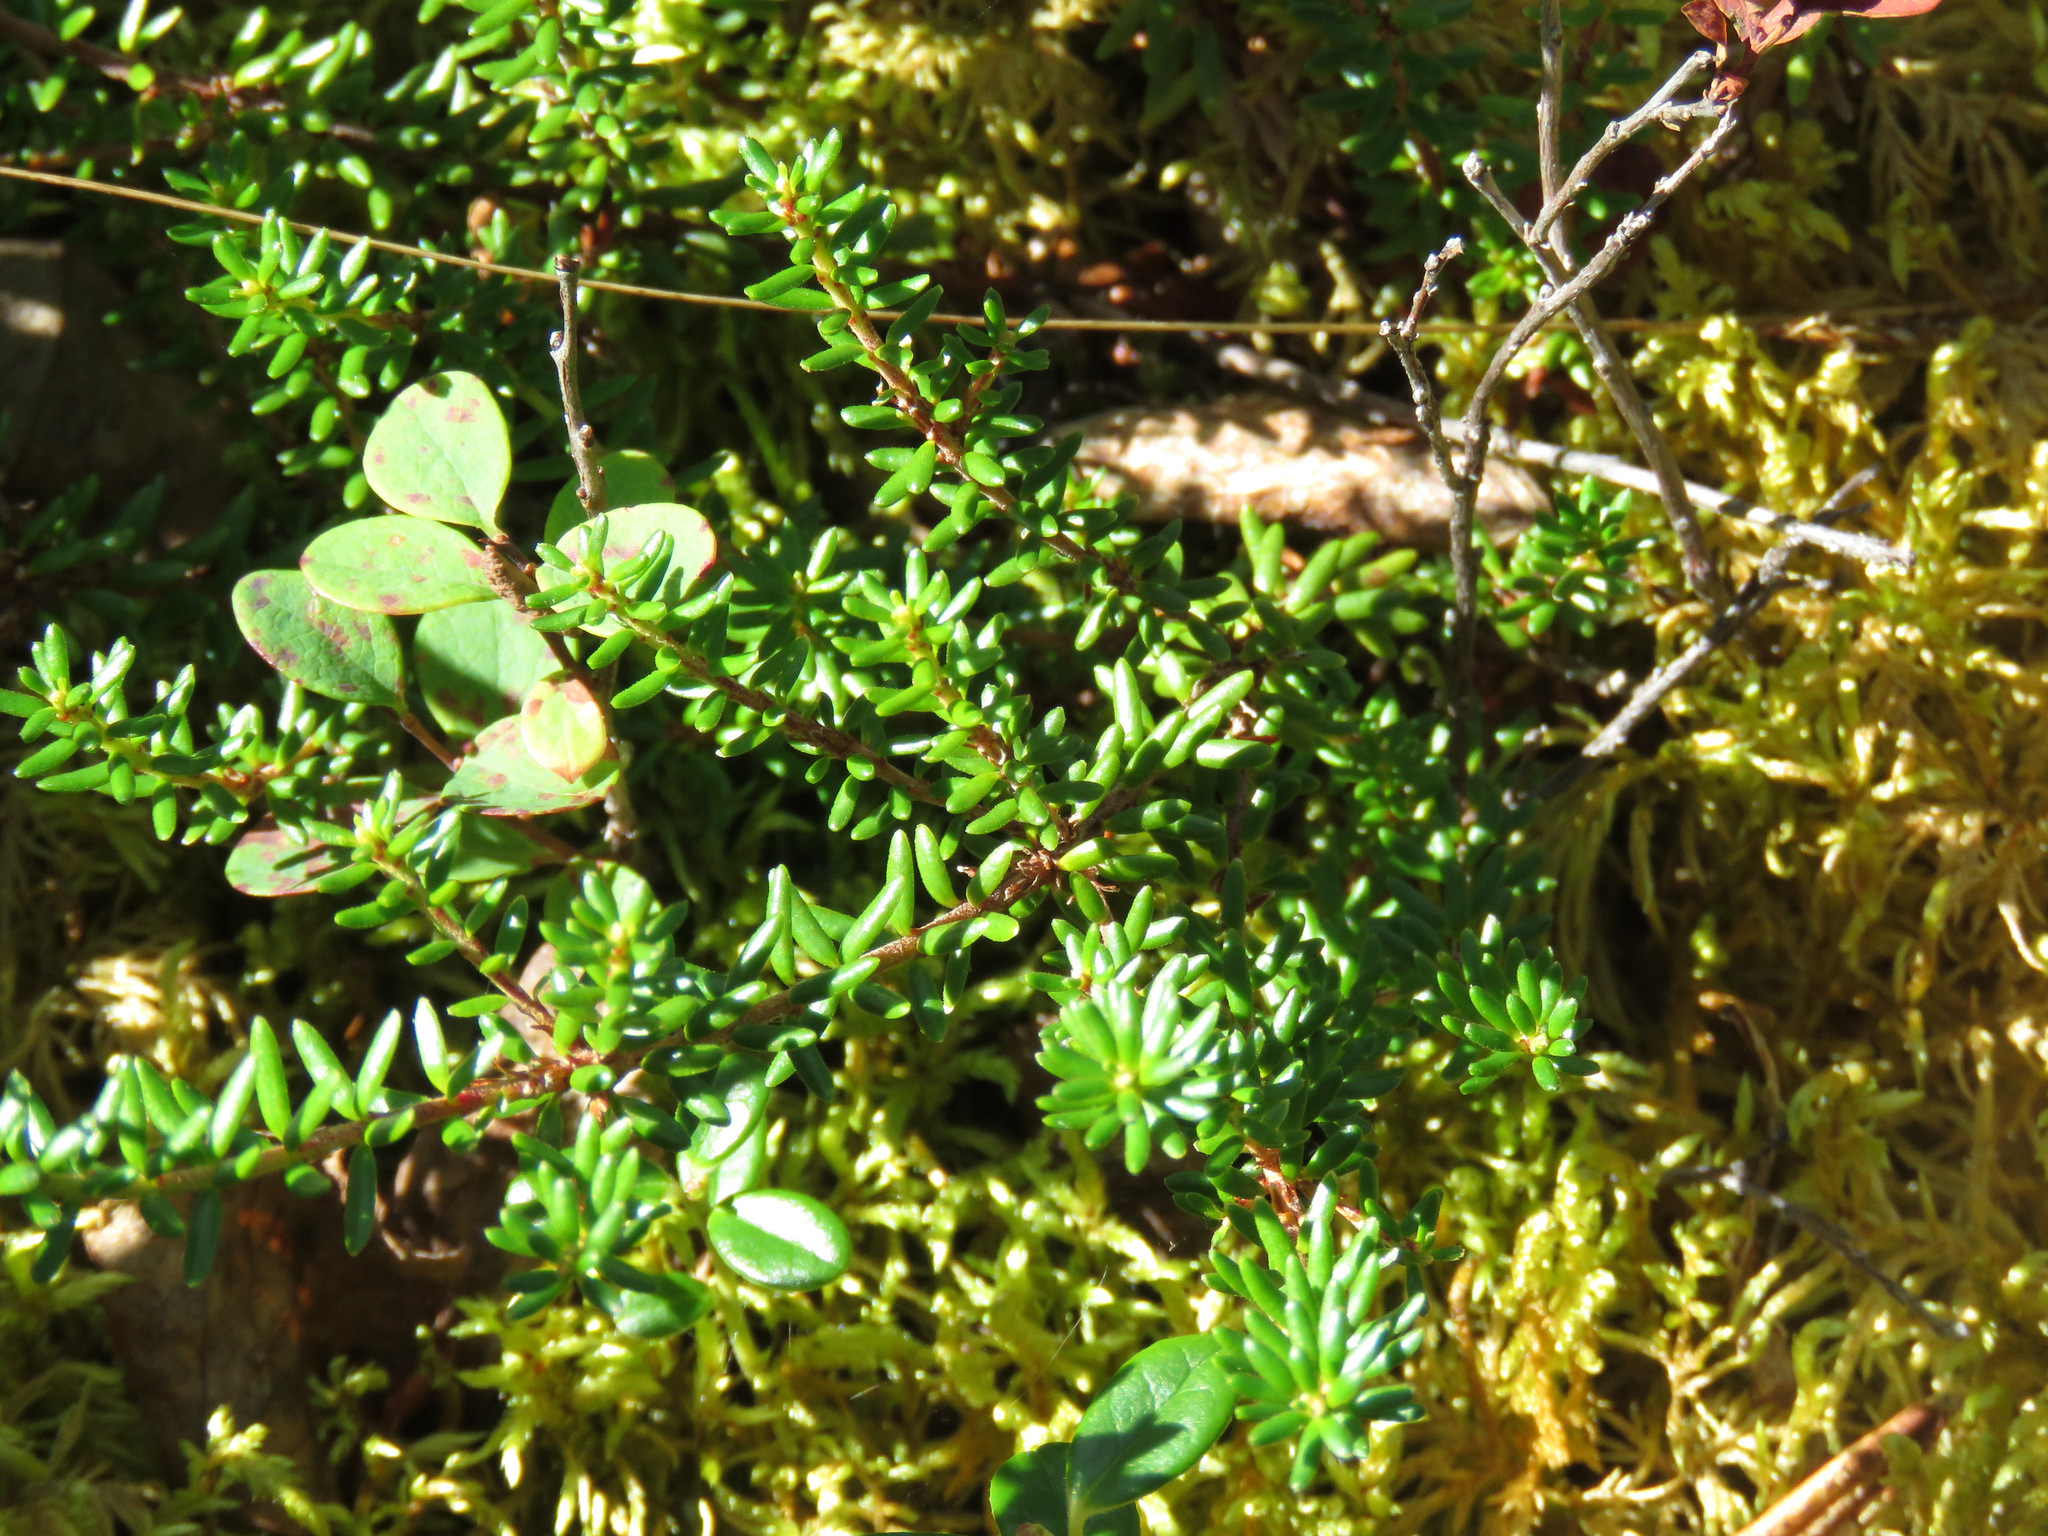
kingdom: Plantae
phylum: Tracheophyta
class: Magnoliopsida
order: Ericales
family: Ericaceae
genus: Empetrum
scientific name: Empetrum nigrum
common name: Black crowberry
